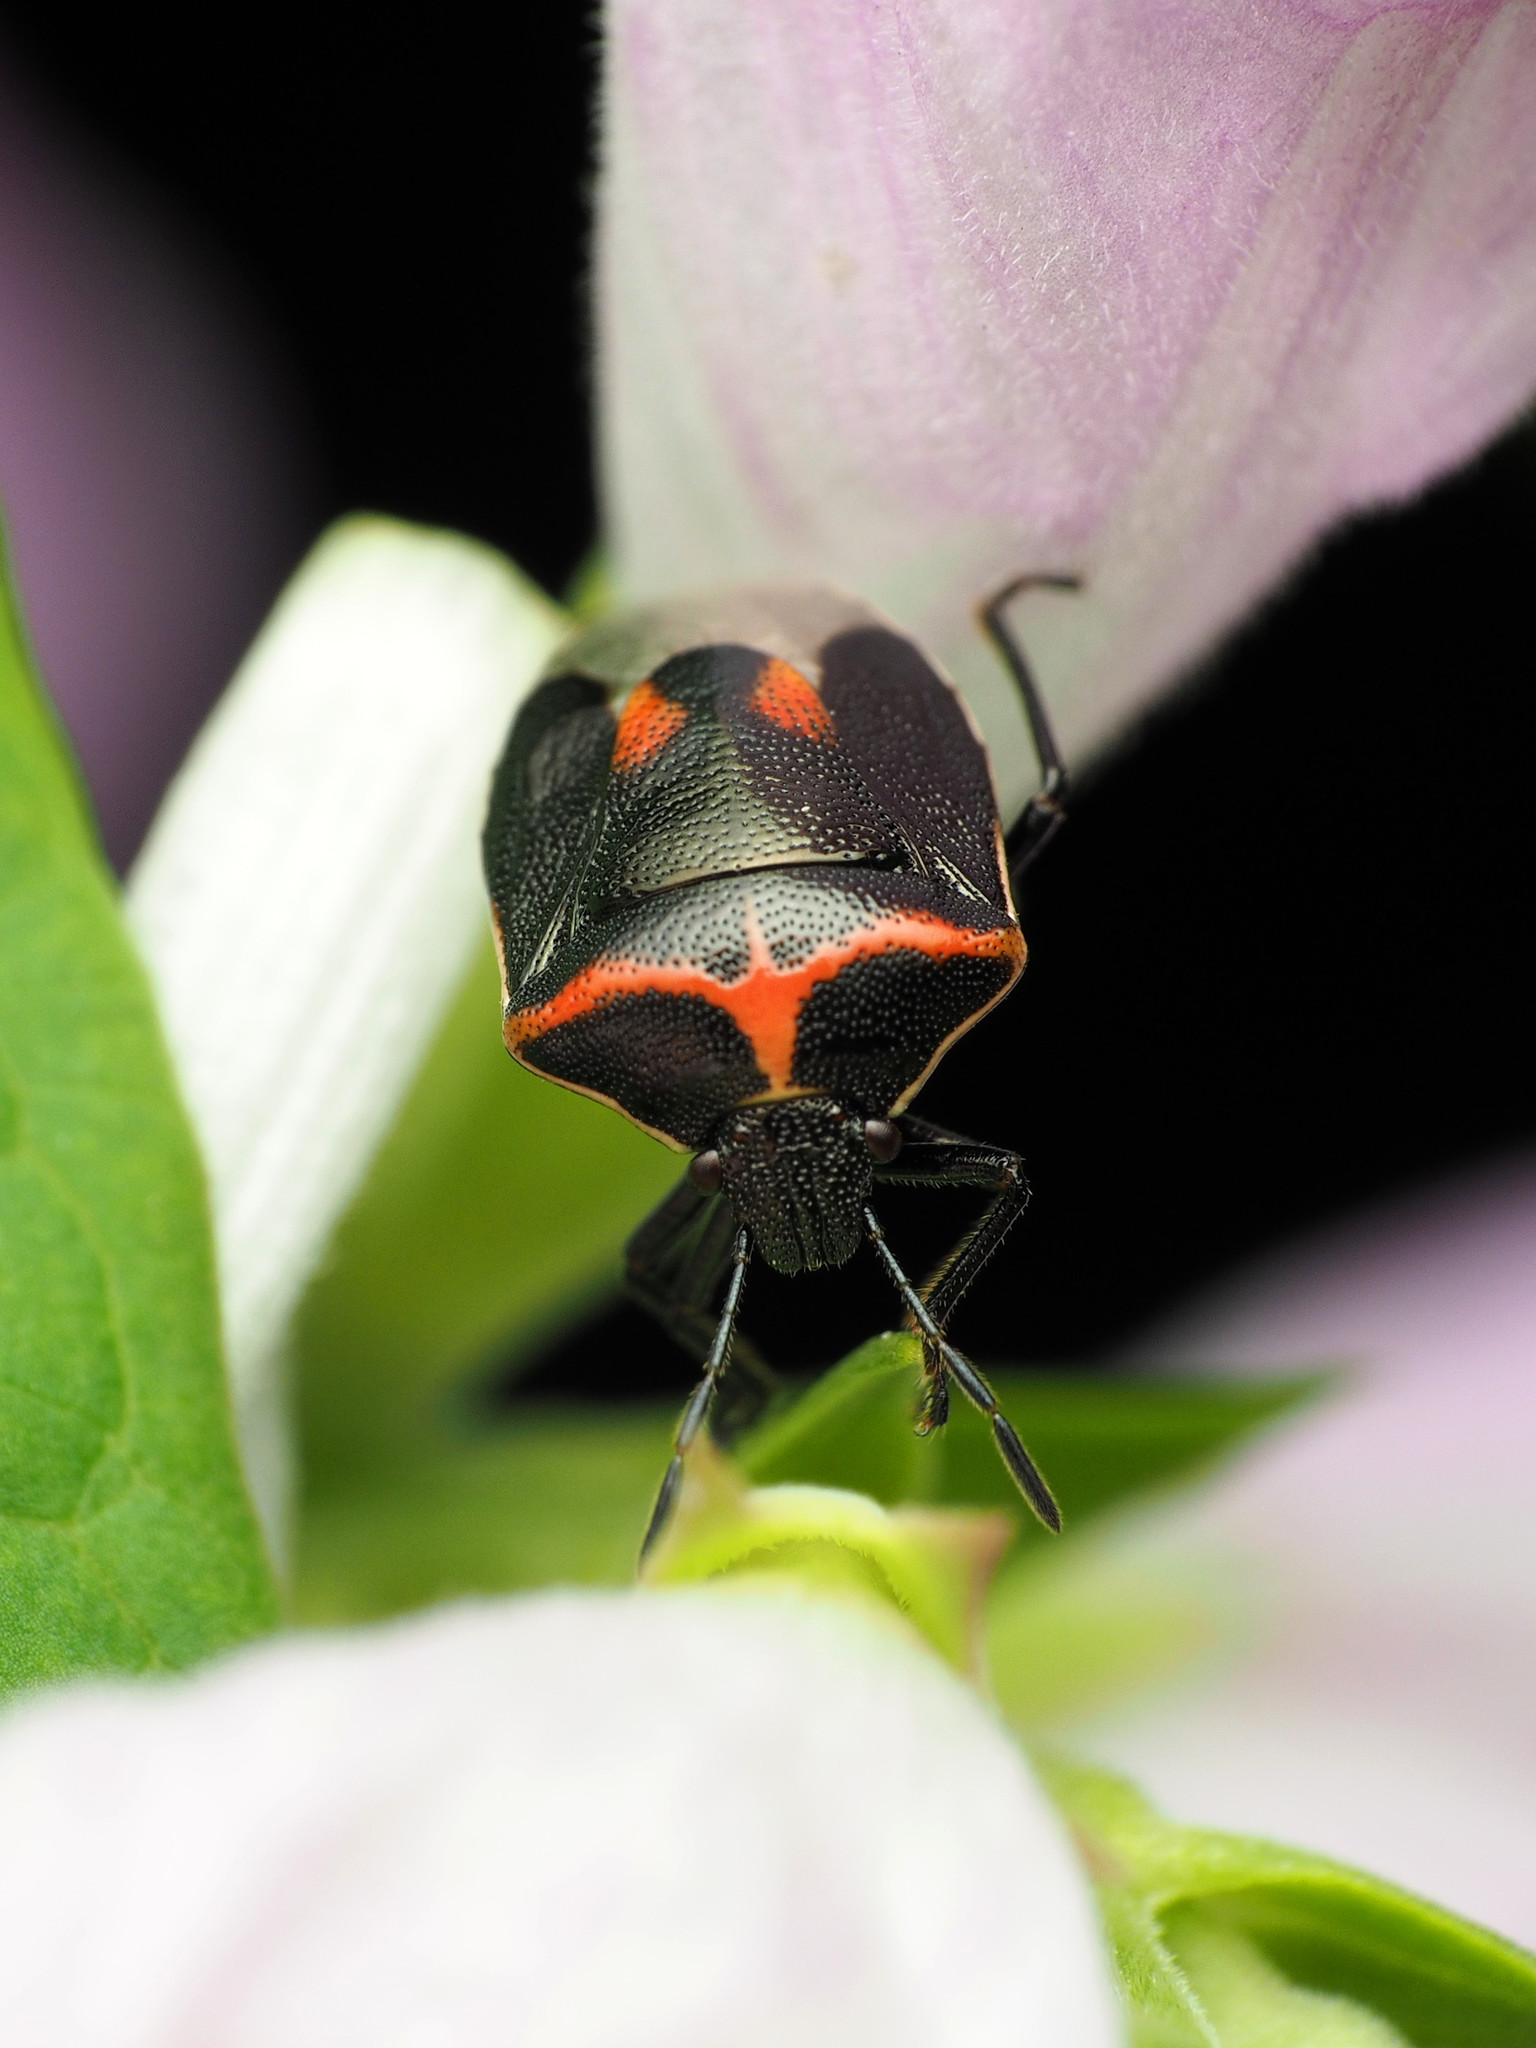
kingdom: Animalia
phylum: Arthropoda
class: Insecta
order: Hemiptera
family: Pentatomidae
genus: Cosmopepla
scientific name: Cosmopepla lintneriana
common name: Twice-stabbed stink bug
